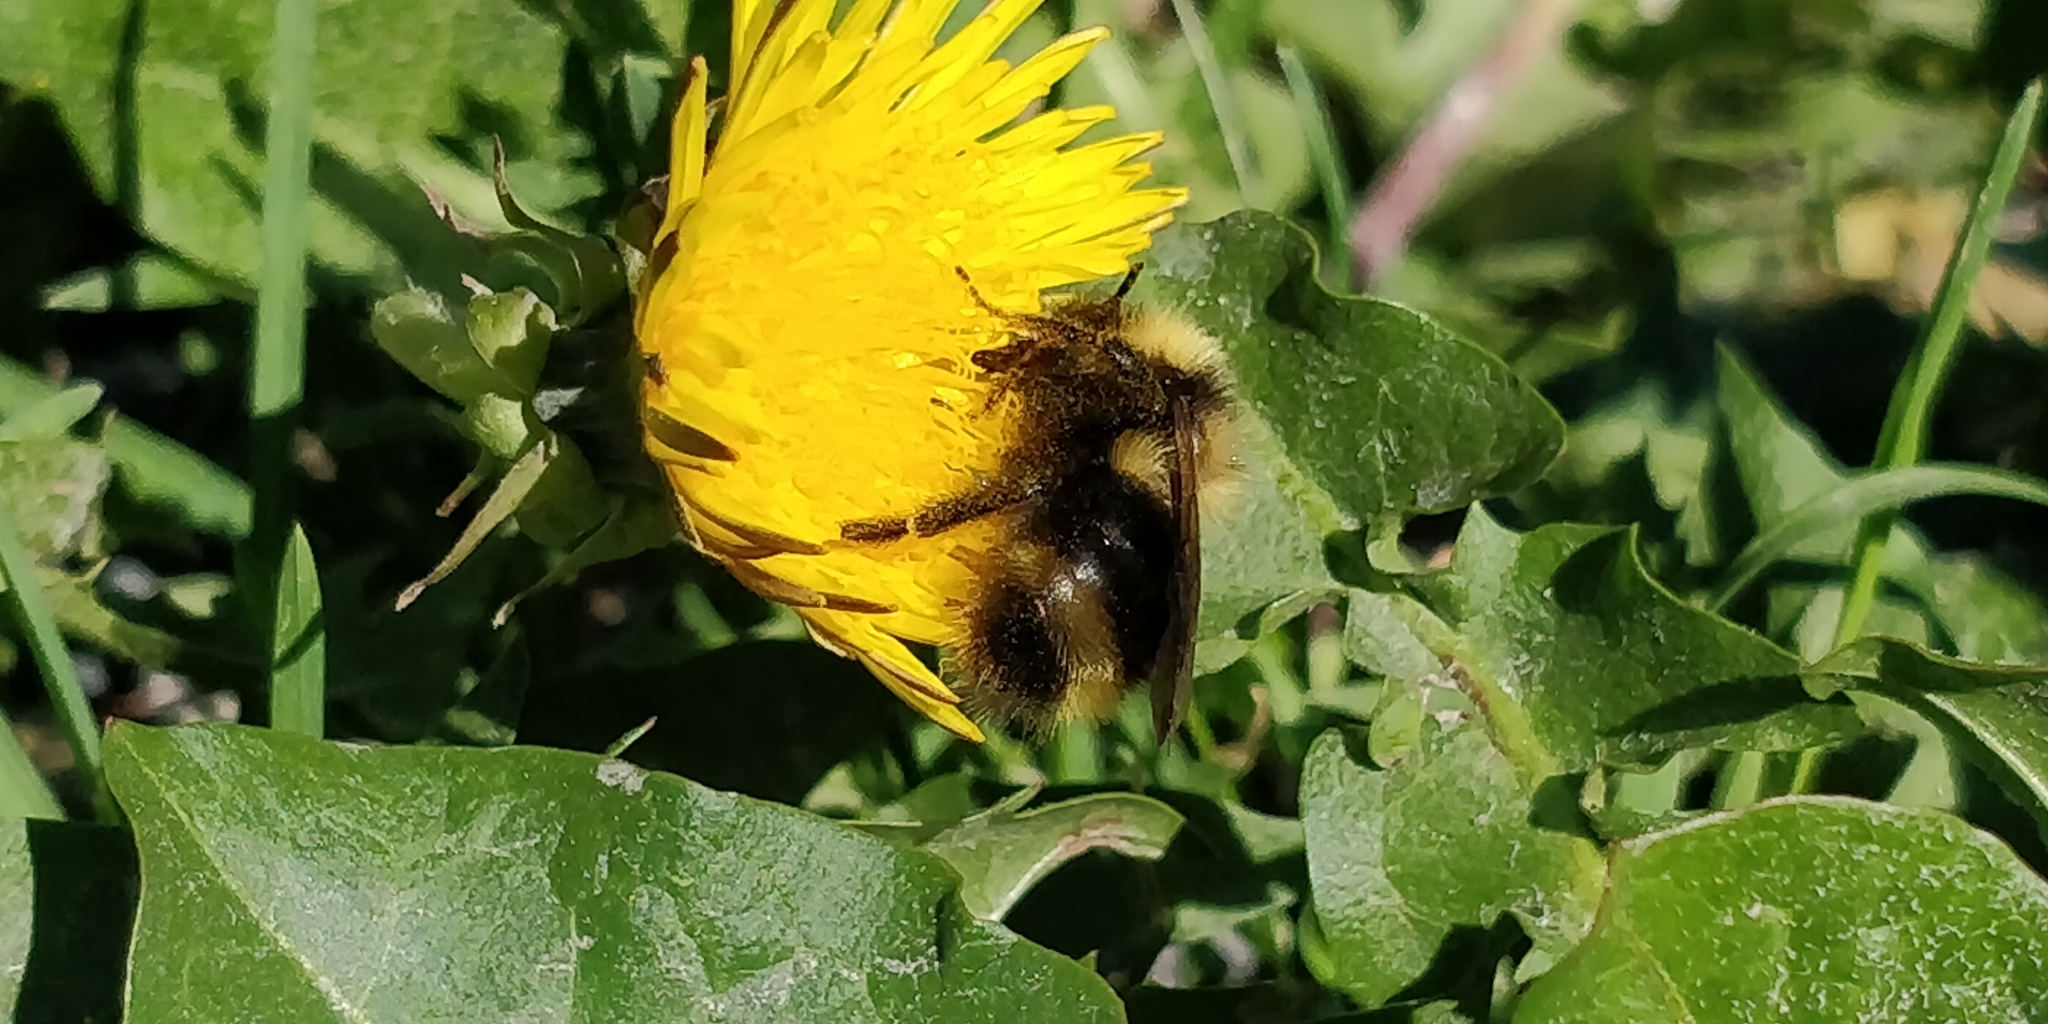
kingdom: Animalia
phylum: Arthropoda
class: Insecta
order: Hymenoptera
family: Apidae
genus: Bombus
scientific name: Bombus flavidus
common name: Fernald cuckoo bumble bee
